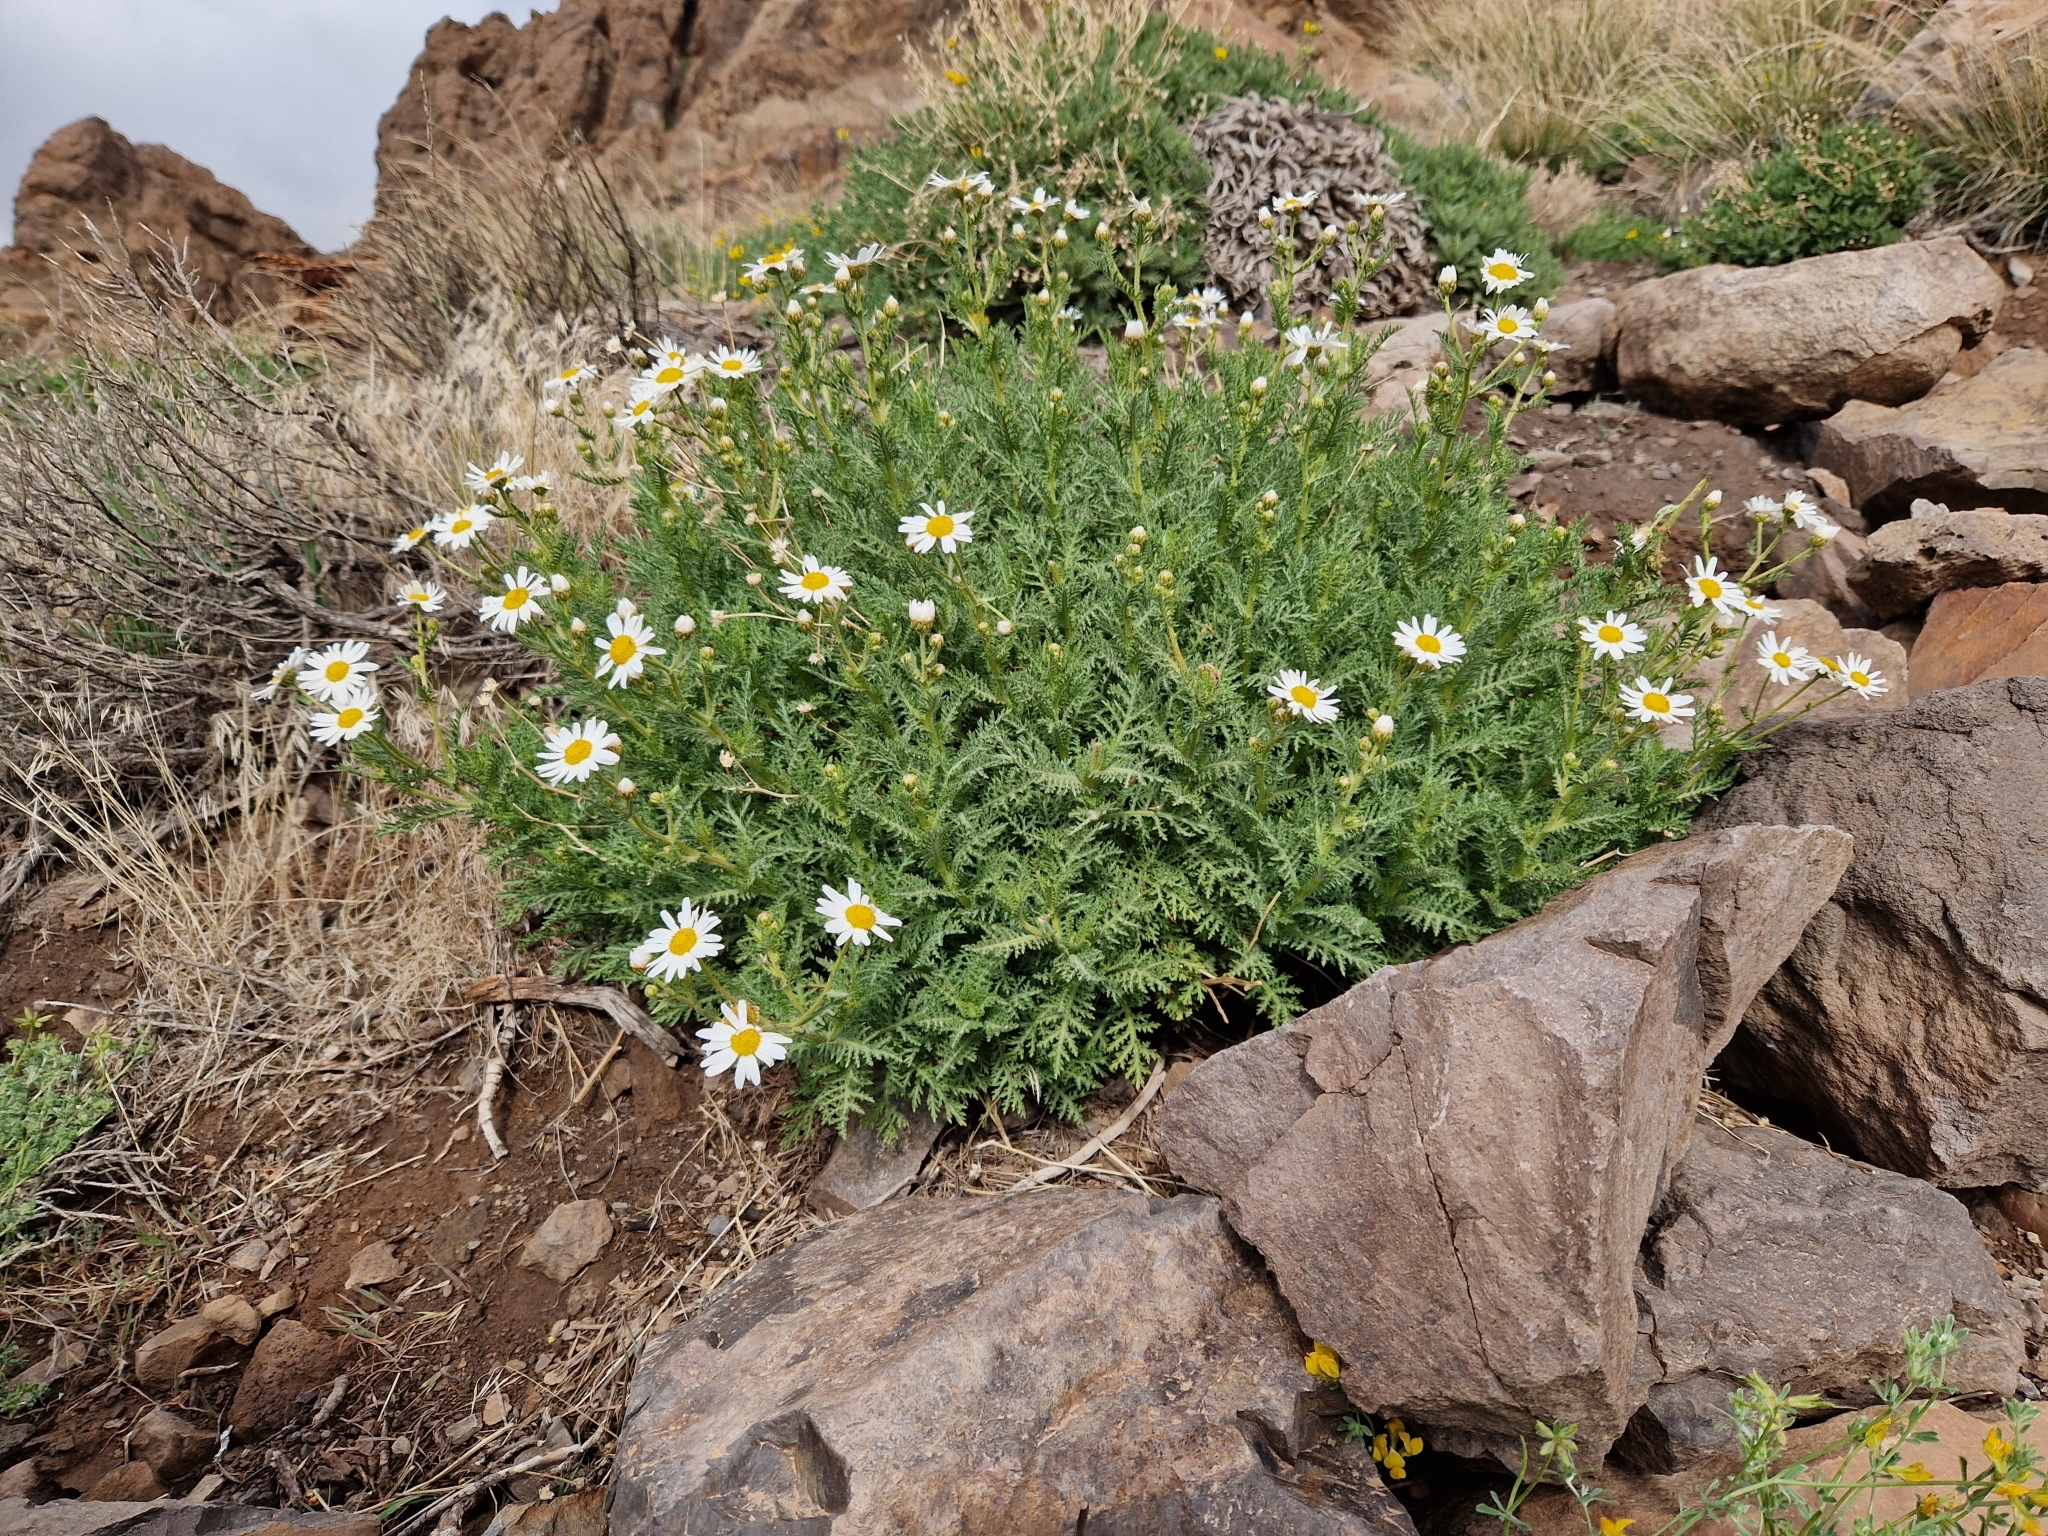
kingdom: Plantae
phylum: Tracheophyta
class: Magnoliopsida
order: Asterales
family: Asteraceae
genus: Argyranthemum
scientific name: Argyranthemum tenerifae
